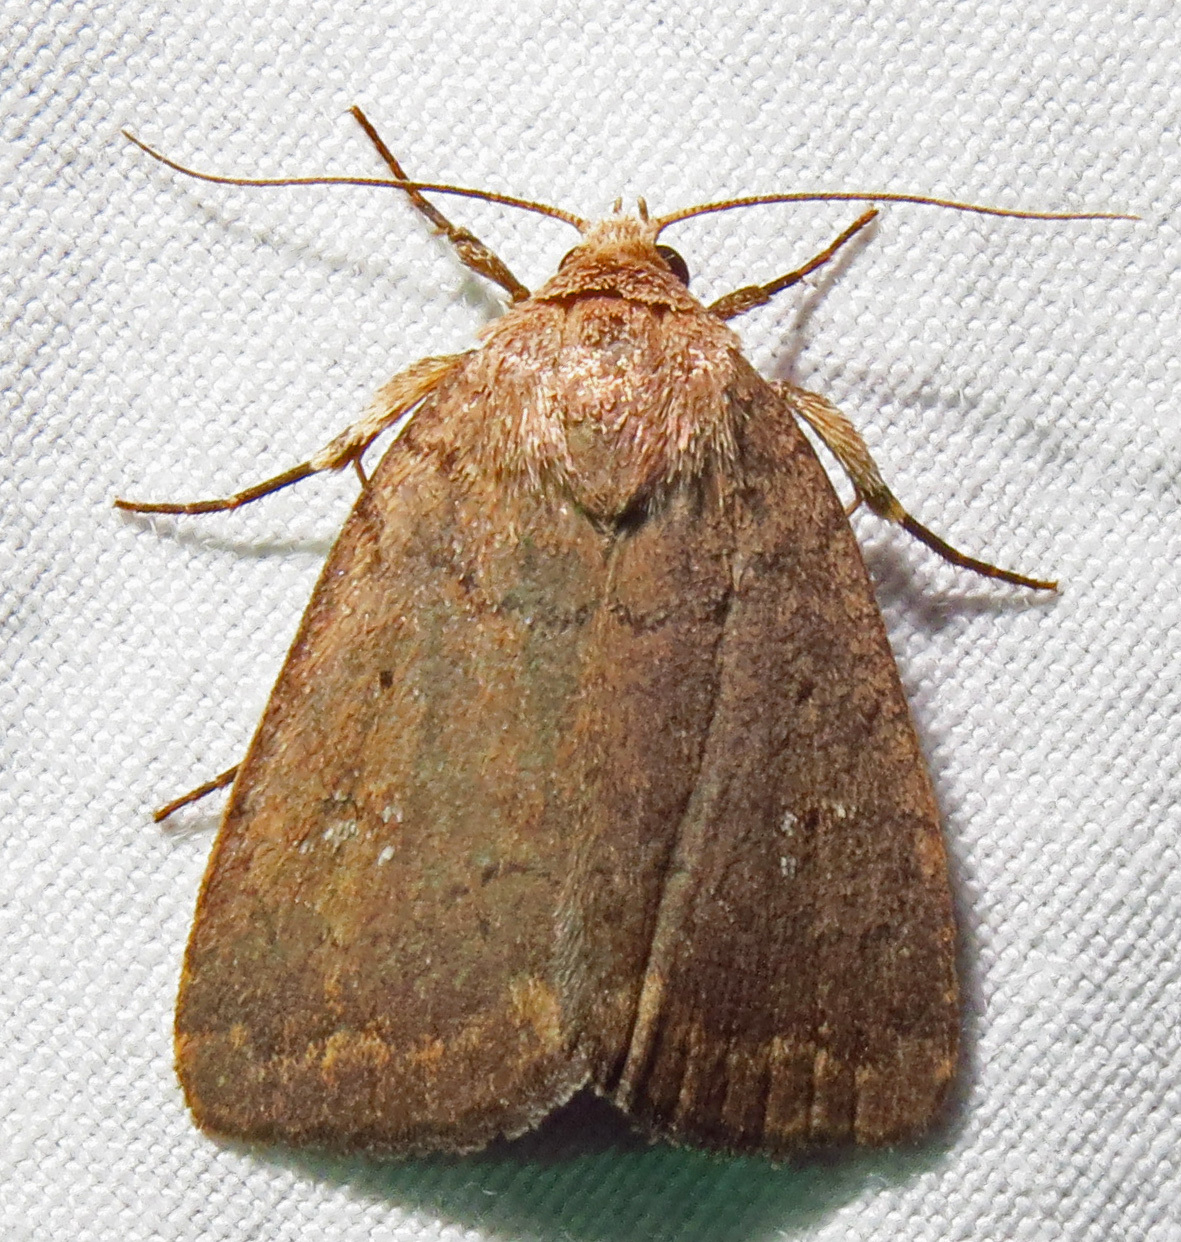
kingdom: Animalia
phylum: Arthropoda
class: Insecta
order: Lepidoptera
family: Noctuidae
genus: Athetis
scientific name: Athetis tarda
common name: Slowpoke moth
